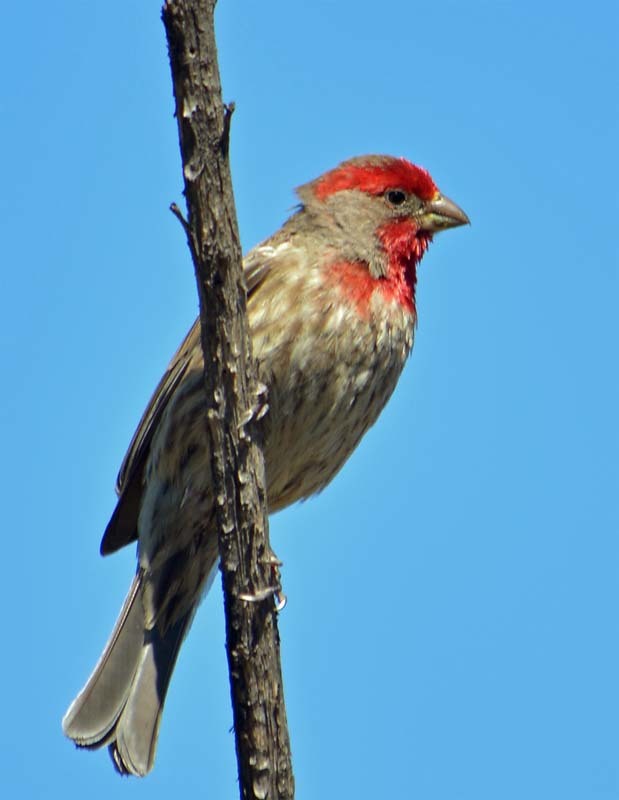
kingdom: Animalia
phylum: Chordata
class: Aves
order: Passeriformes
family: Fringillidae
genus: Haemorhous
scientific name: Haemorhous mexicanus
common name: House finch
